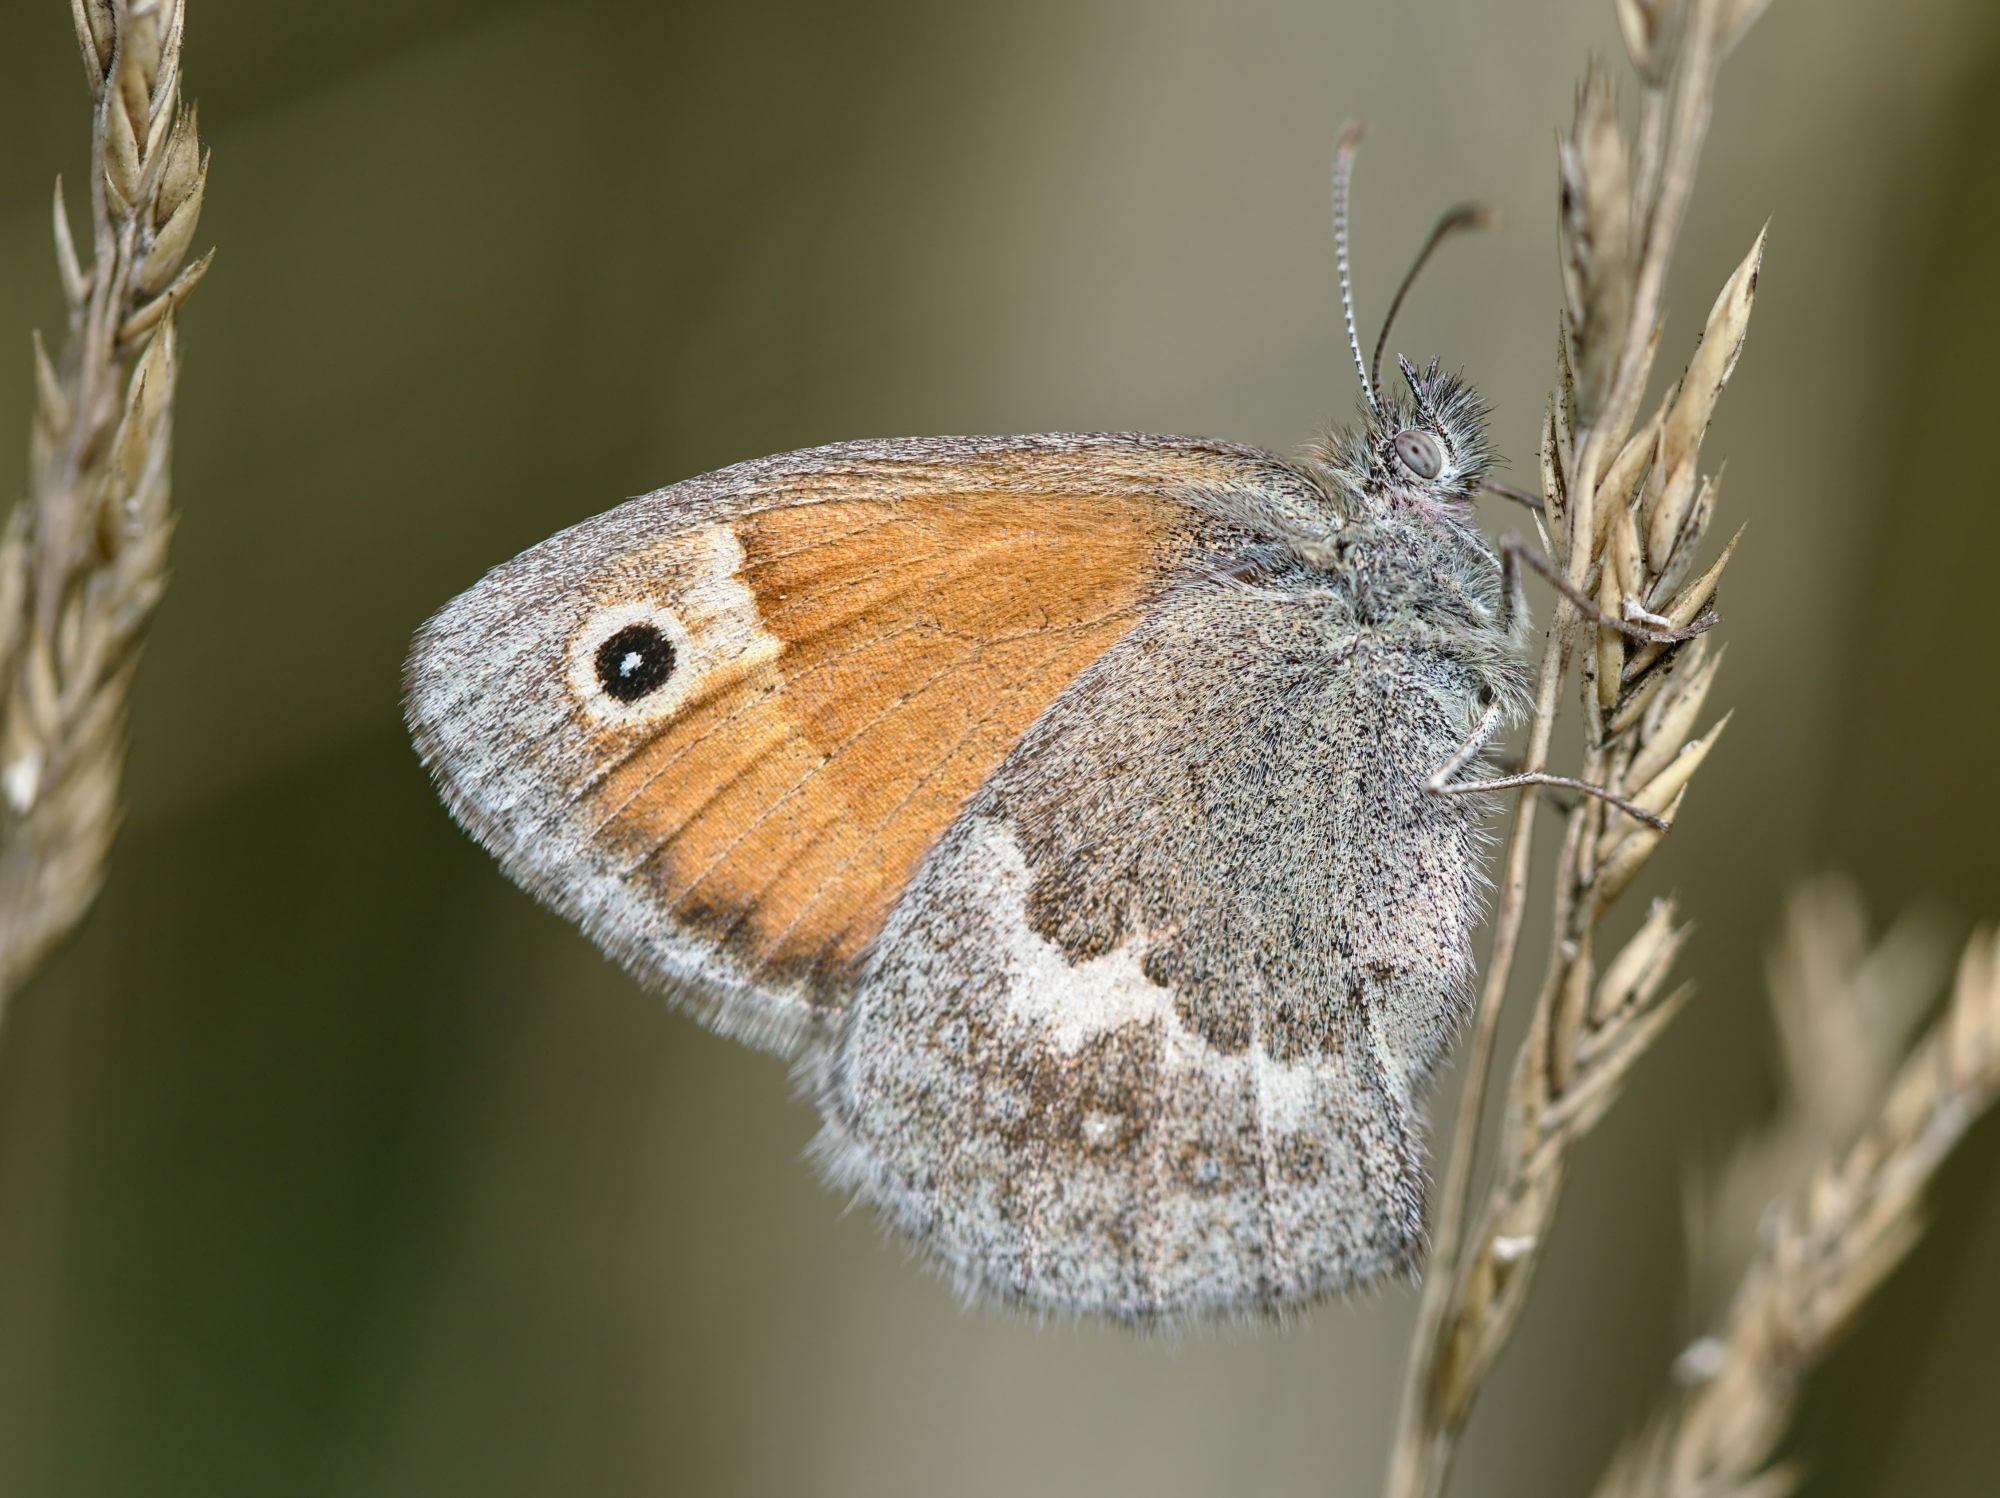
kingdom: Animalia
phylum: Arthropoda
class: Insecta
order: Lepidoptera
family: Nymphalidae
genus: Coenonympha
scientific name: Coenonympha pamphilus
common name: Small heath
